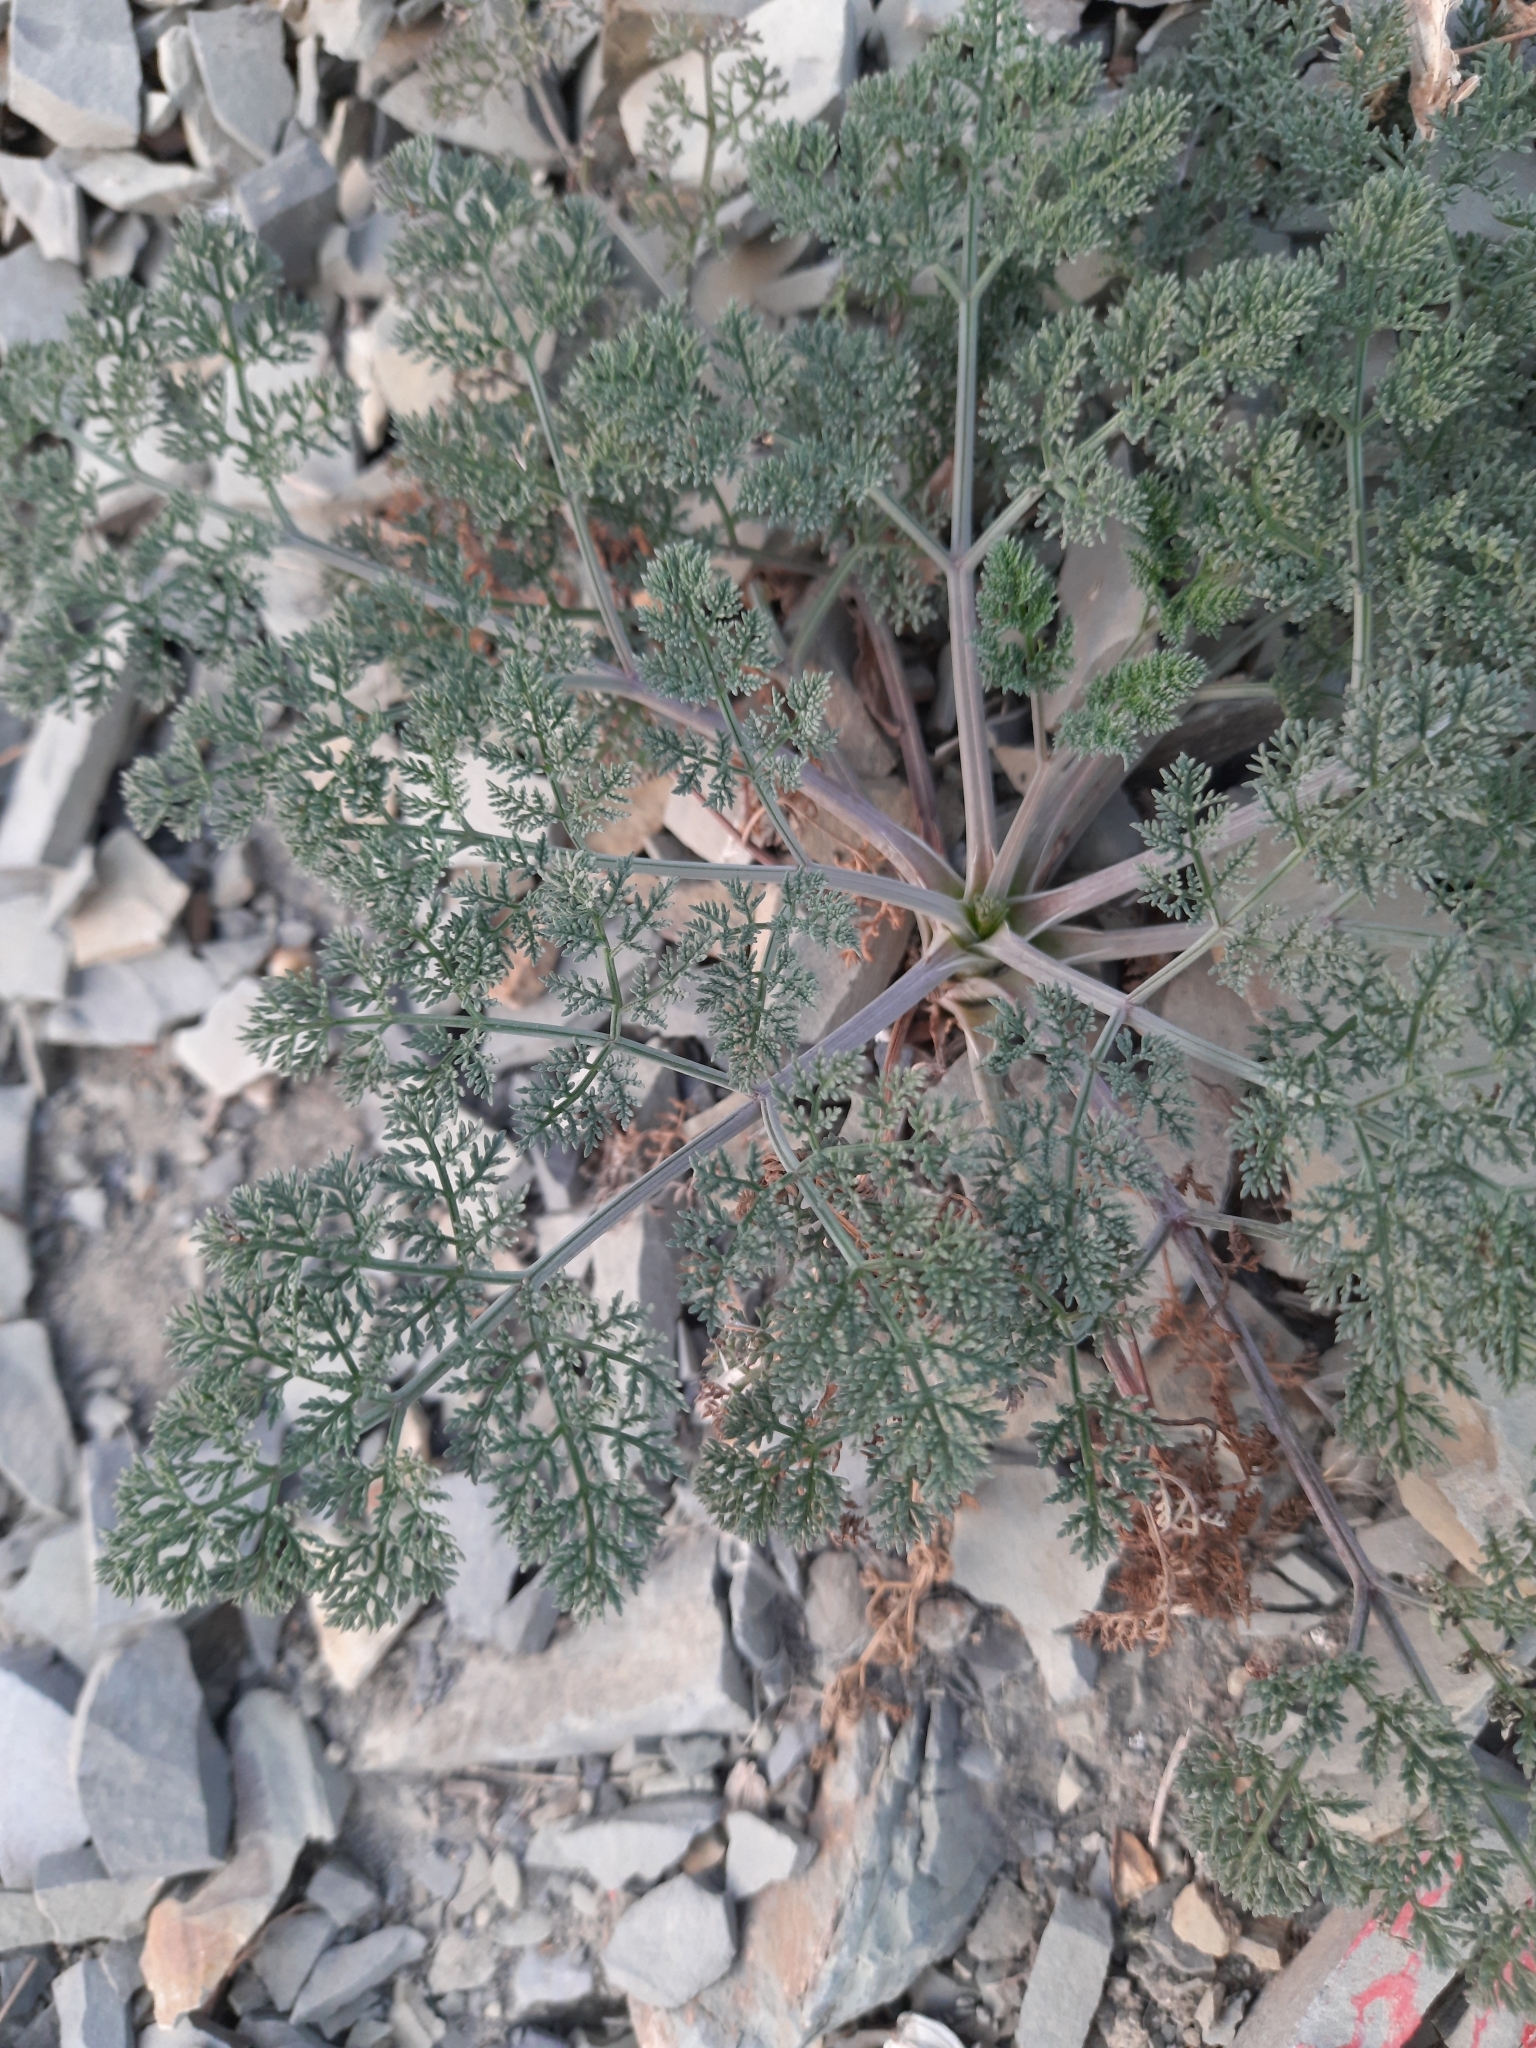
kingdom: Plantae
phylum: Tracheophyta
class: Magnoliopsida
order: Apiales
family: Apiaceae
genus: Astrodaucus
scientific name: Astrodaucus orientalis
